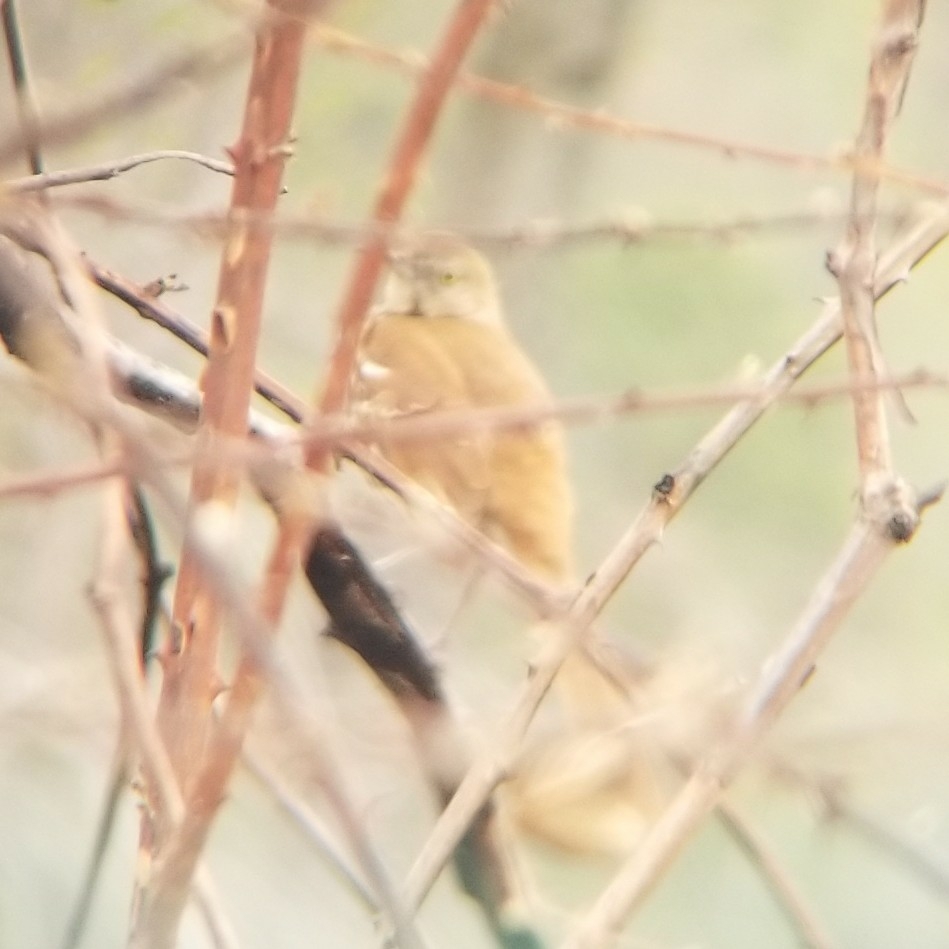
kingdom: Animalia
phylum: Chordata
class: Aves
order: Passeriformes
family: Mimidae
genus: Toxostoma
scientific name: Toxostoma rufum
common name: Brown thrasher
